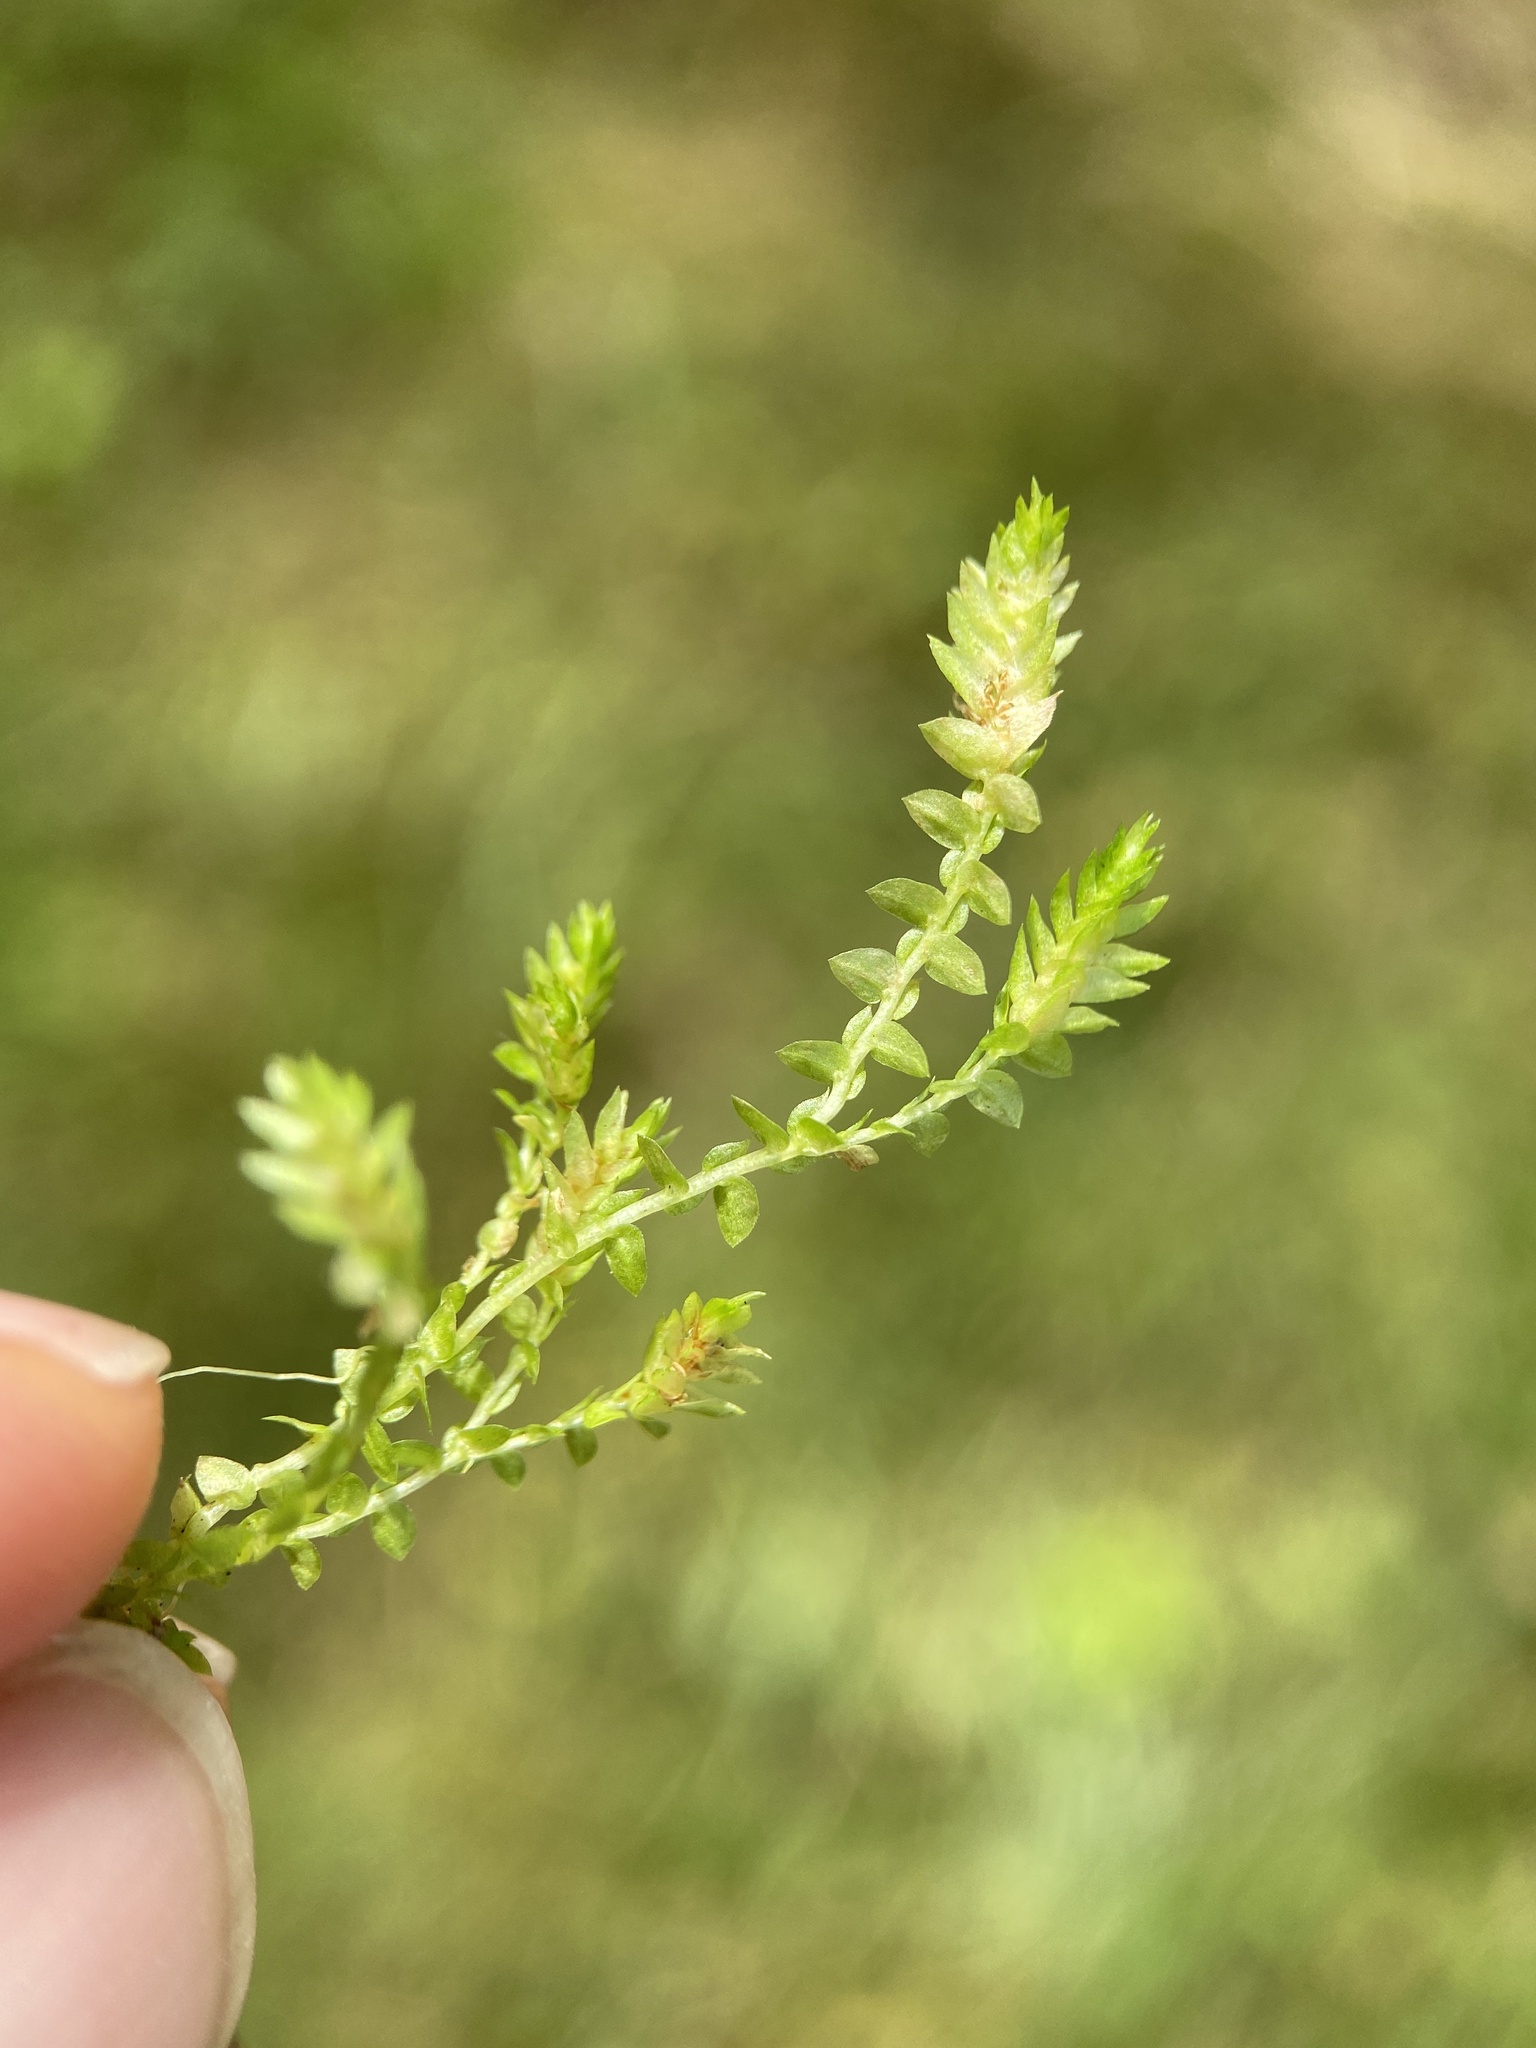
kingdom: Plantae
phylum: Tracheophyta
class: Lycopodiopsida
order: Selaginellales
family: Selaginellaceae
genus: Selaginella
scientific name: Selaginella apoda
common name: Creeping spikemoss
